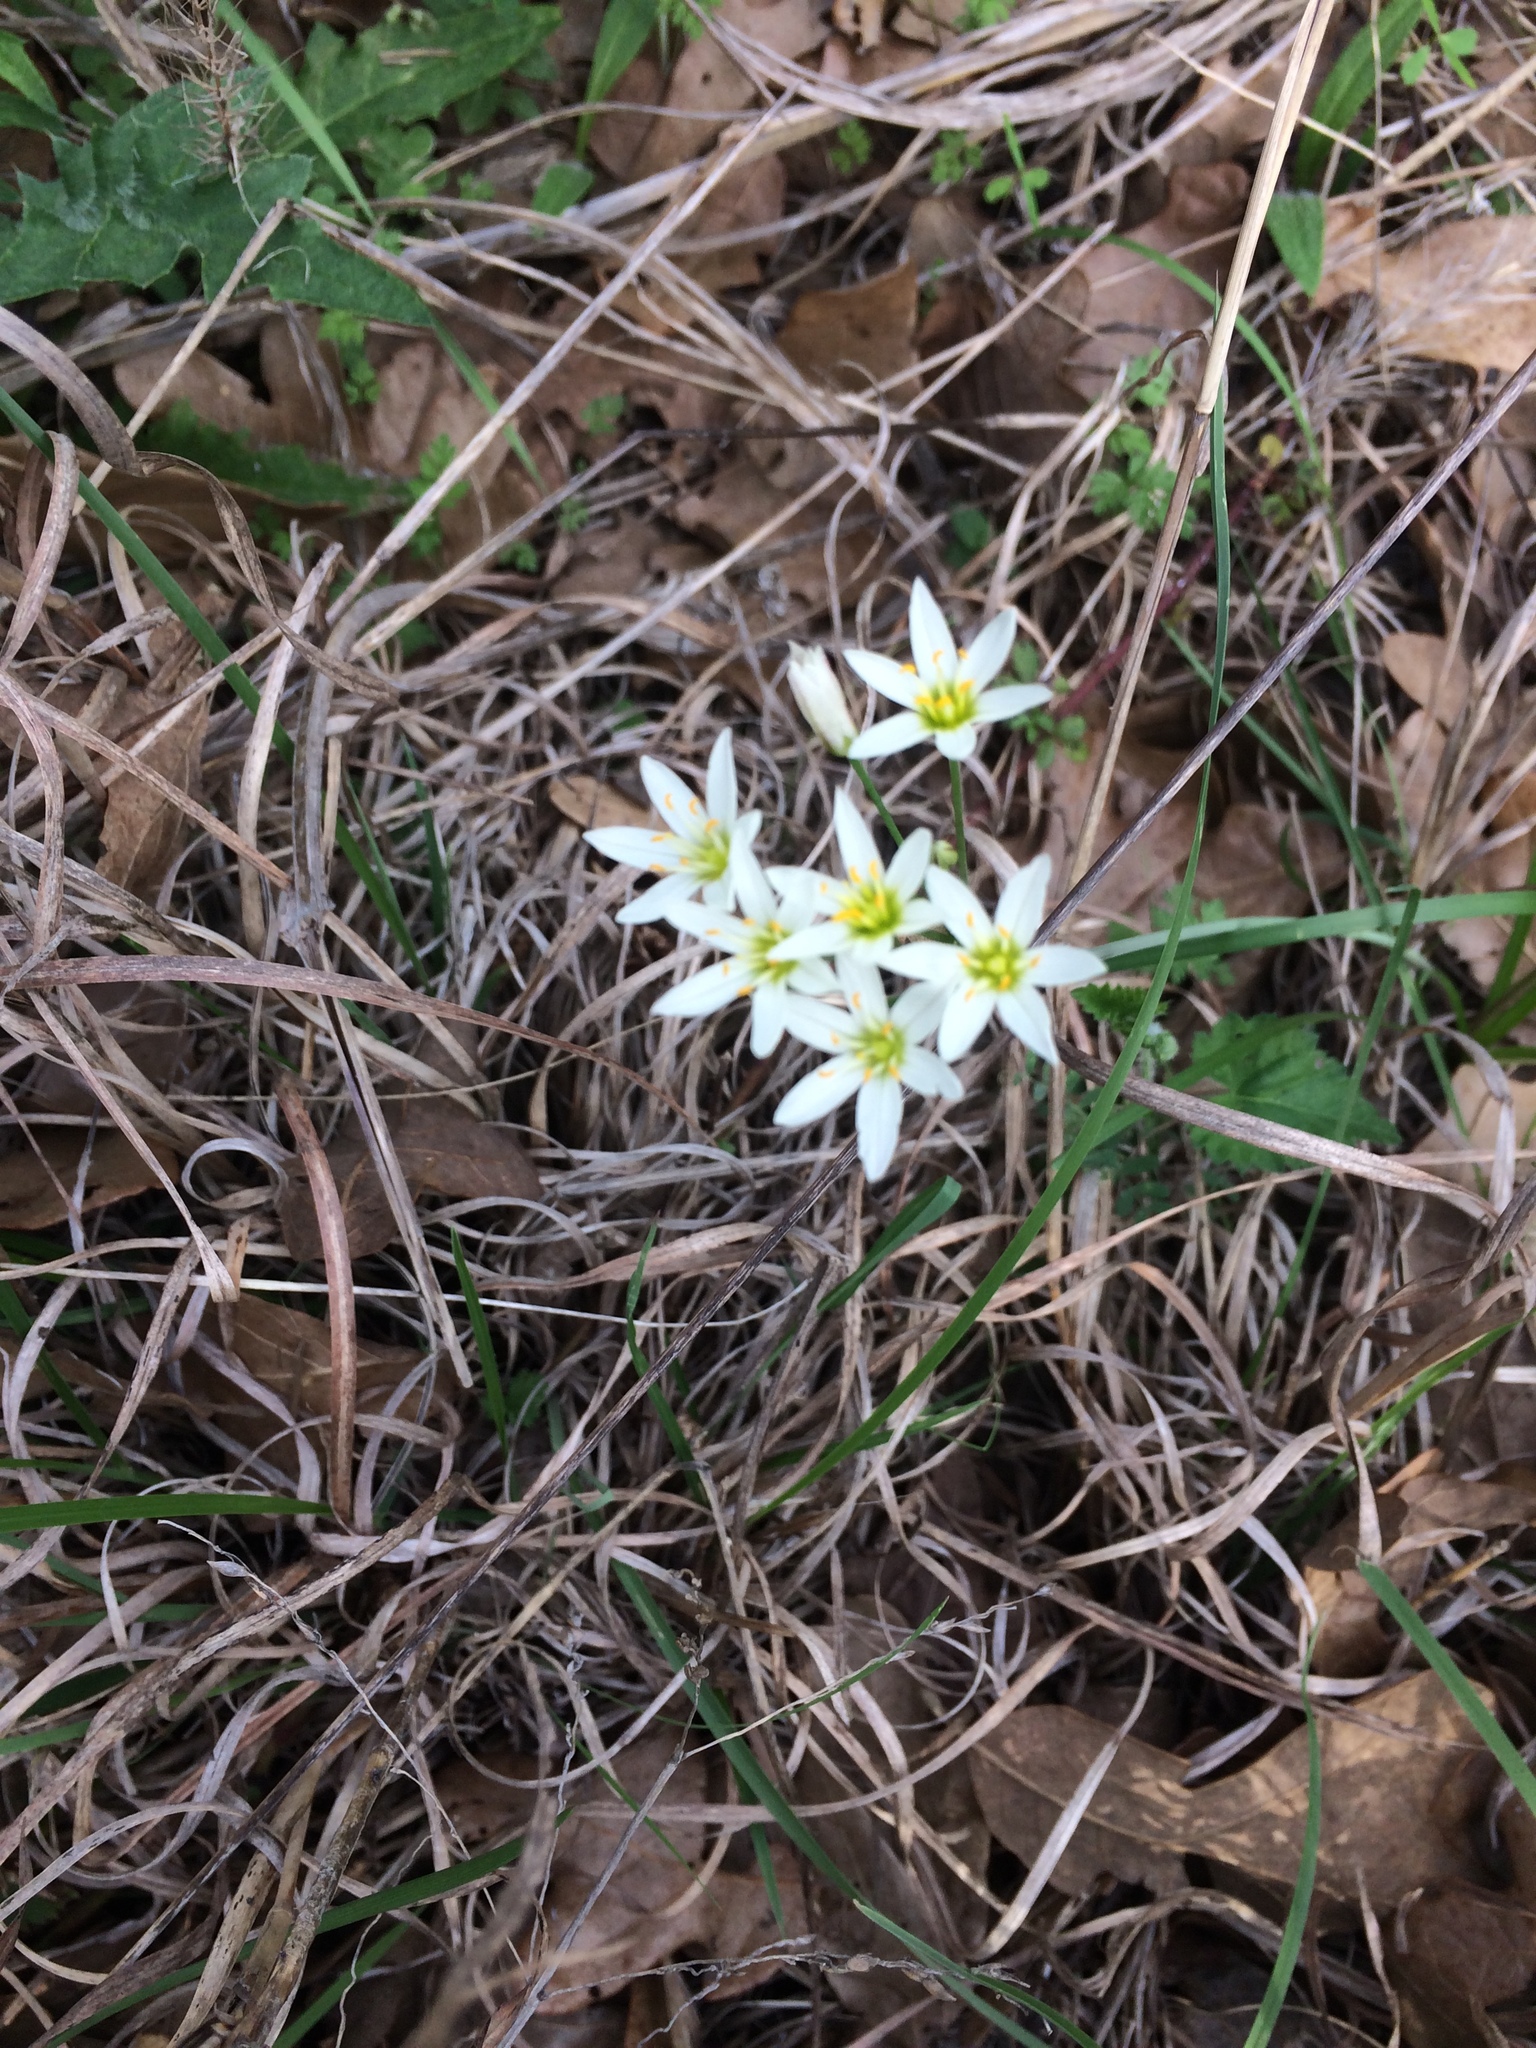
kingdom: Plantae
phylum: Tracheophyta
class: Liliopsida
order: Asparagales
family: Amaryllidaceae
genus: Nothoscordum
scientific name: Nothoscordum bivalve
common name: Crow-poison
